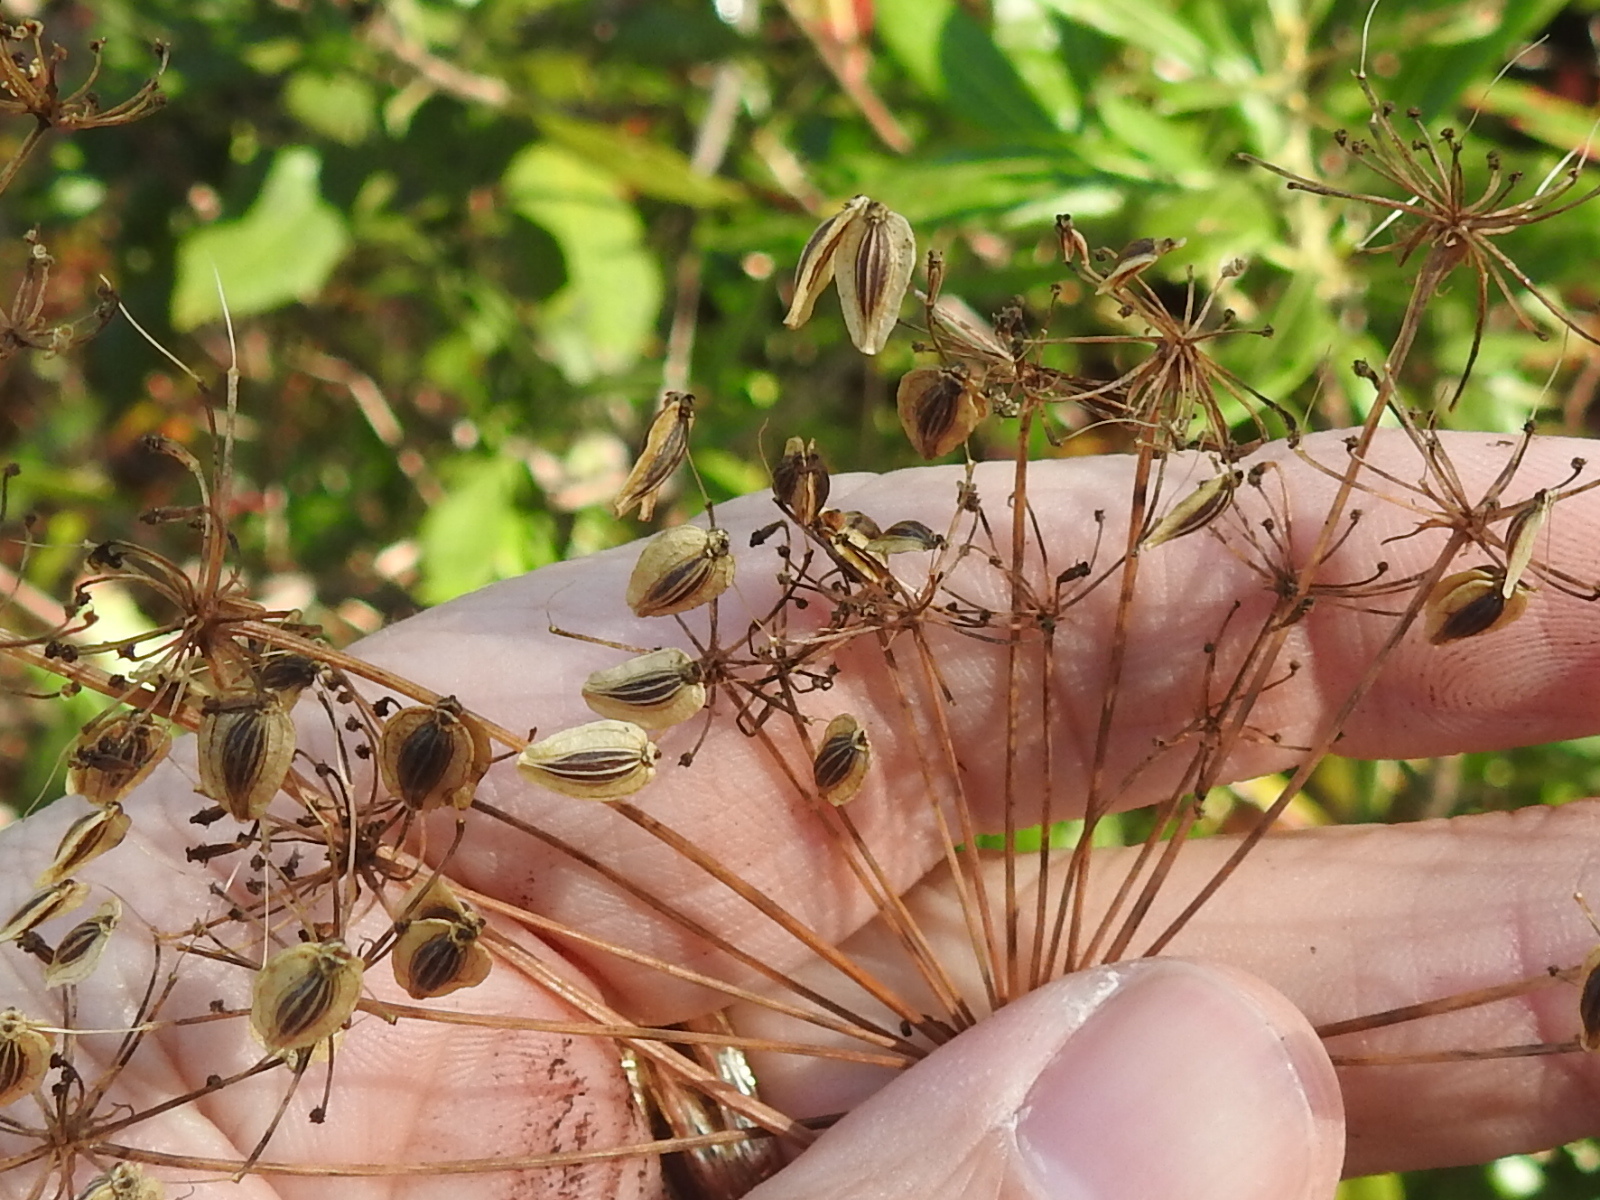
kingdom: Plantae
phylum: Tracheophyta
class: Magnoliopsida
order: Apiales
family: Apiaceae
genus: Tiedemannia
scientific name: Tiedemannia filiformis
